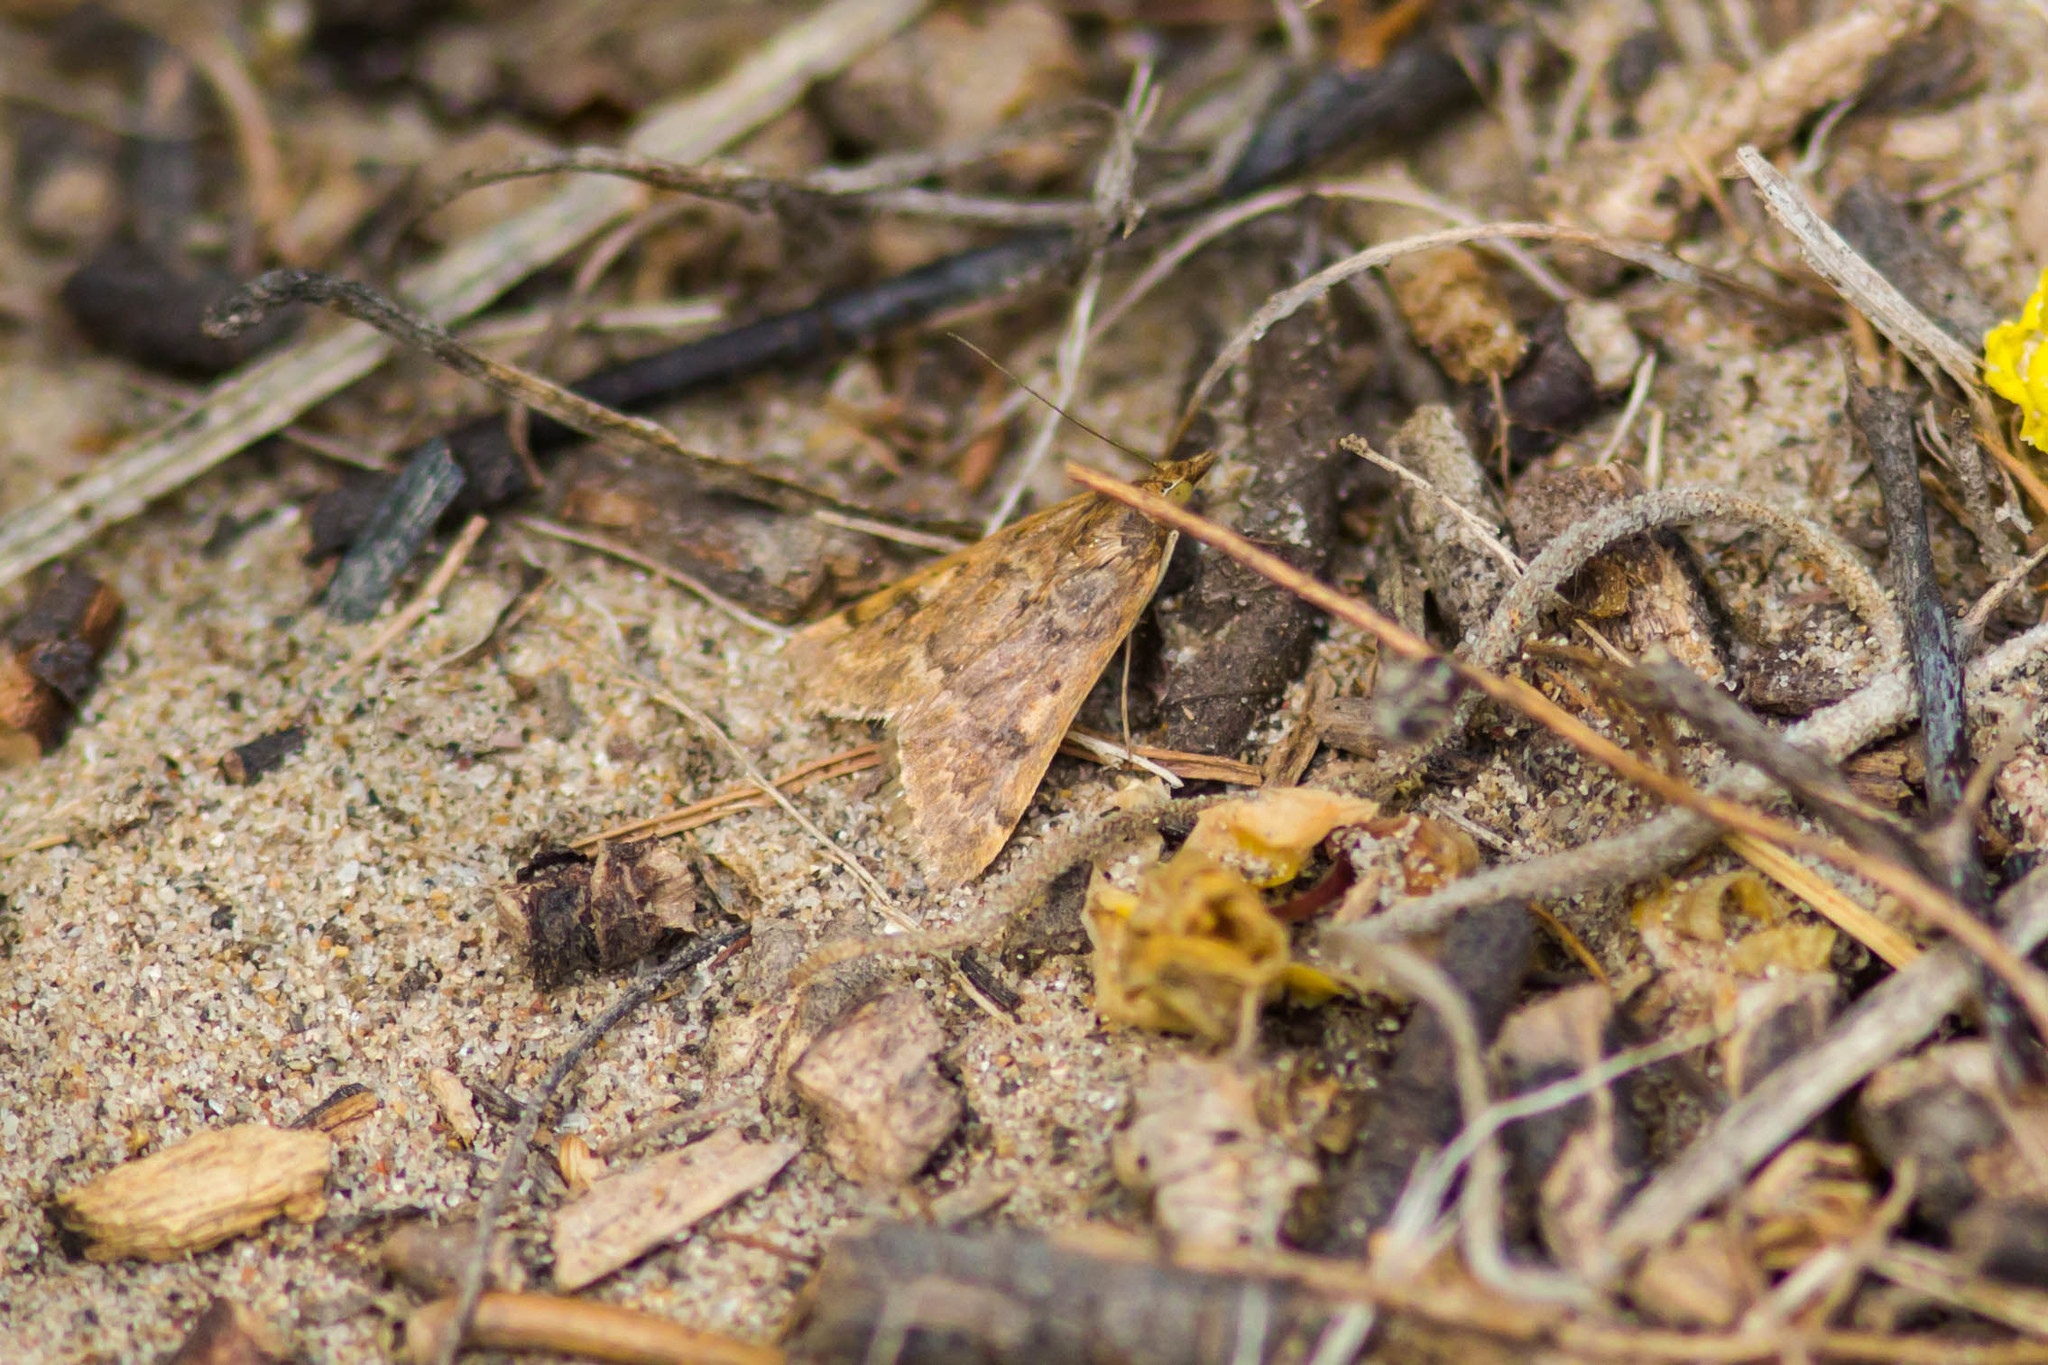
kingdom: Animalia
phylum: Arthropoda
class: Insecta
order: Lepidoptera
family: Crambidae
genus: Achyra
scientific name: Achyra rantalis
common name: Garden webworm
